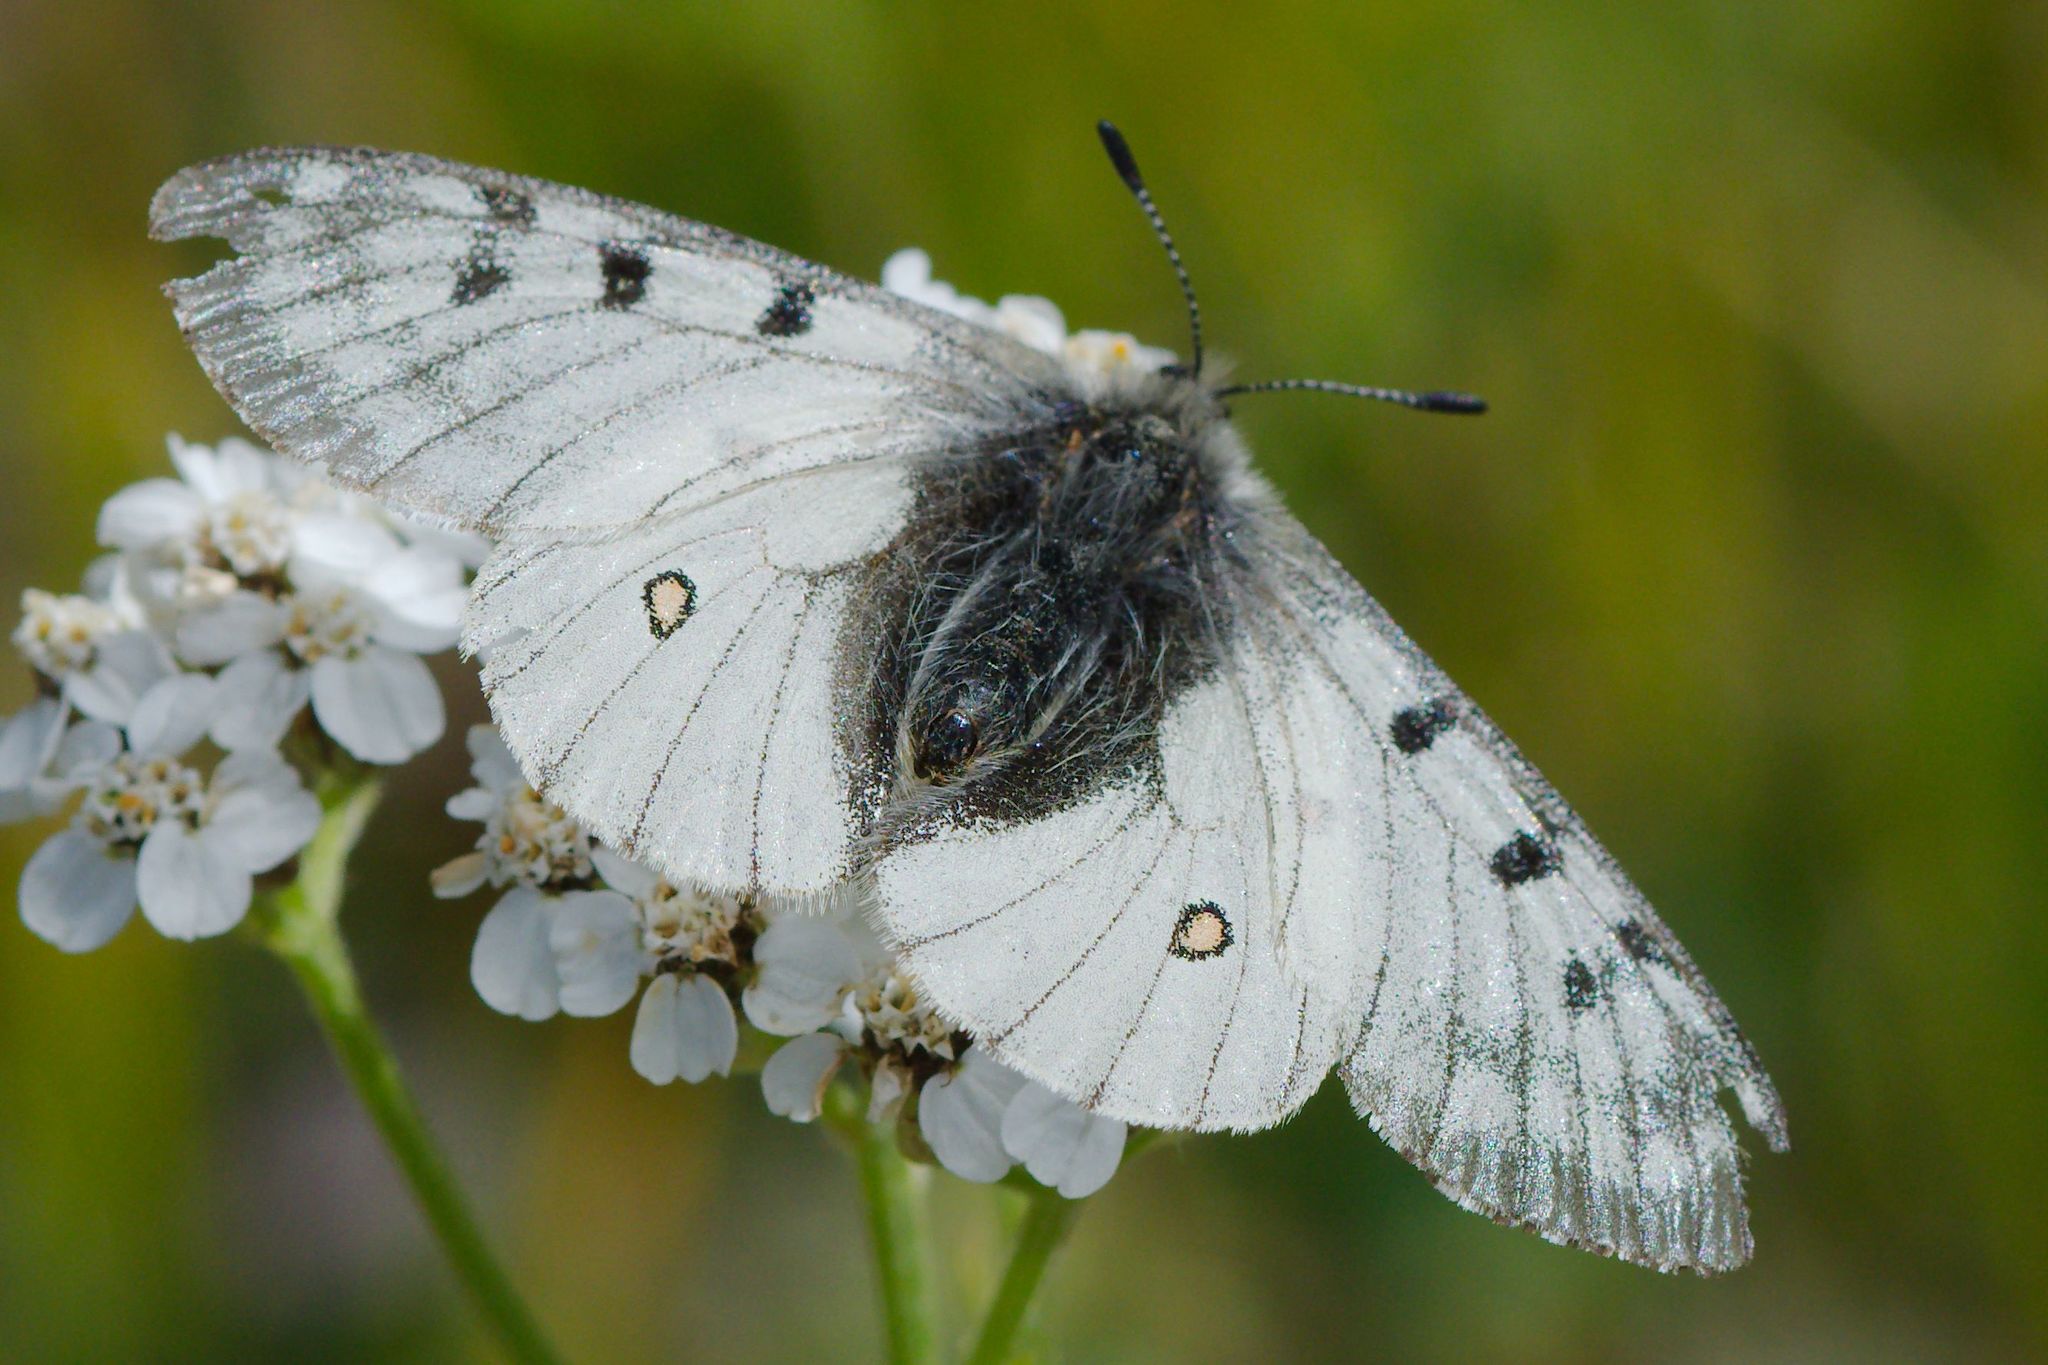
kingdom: Animalia
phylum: Arthropoda
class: Insecta
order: Lepidoptera
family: Papilionidae
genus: Parnassius
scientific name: Parnassius smintheus
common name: Mountain parnassian
